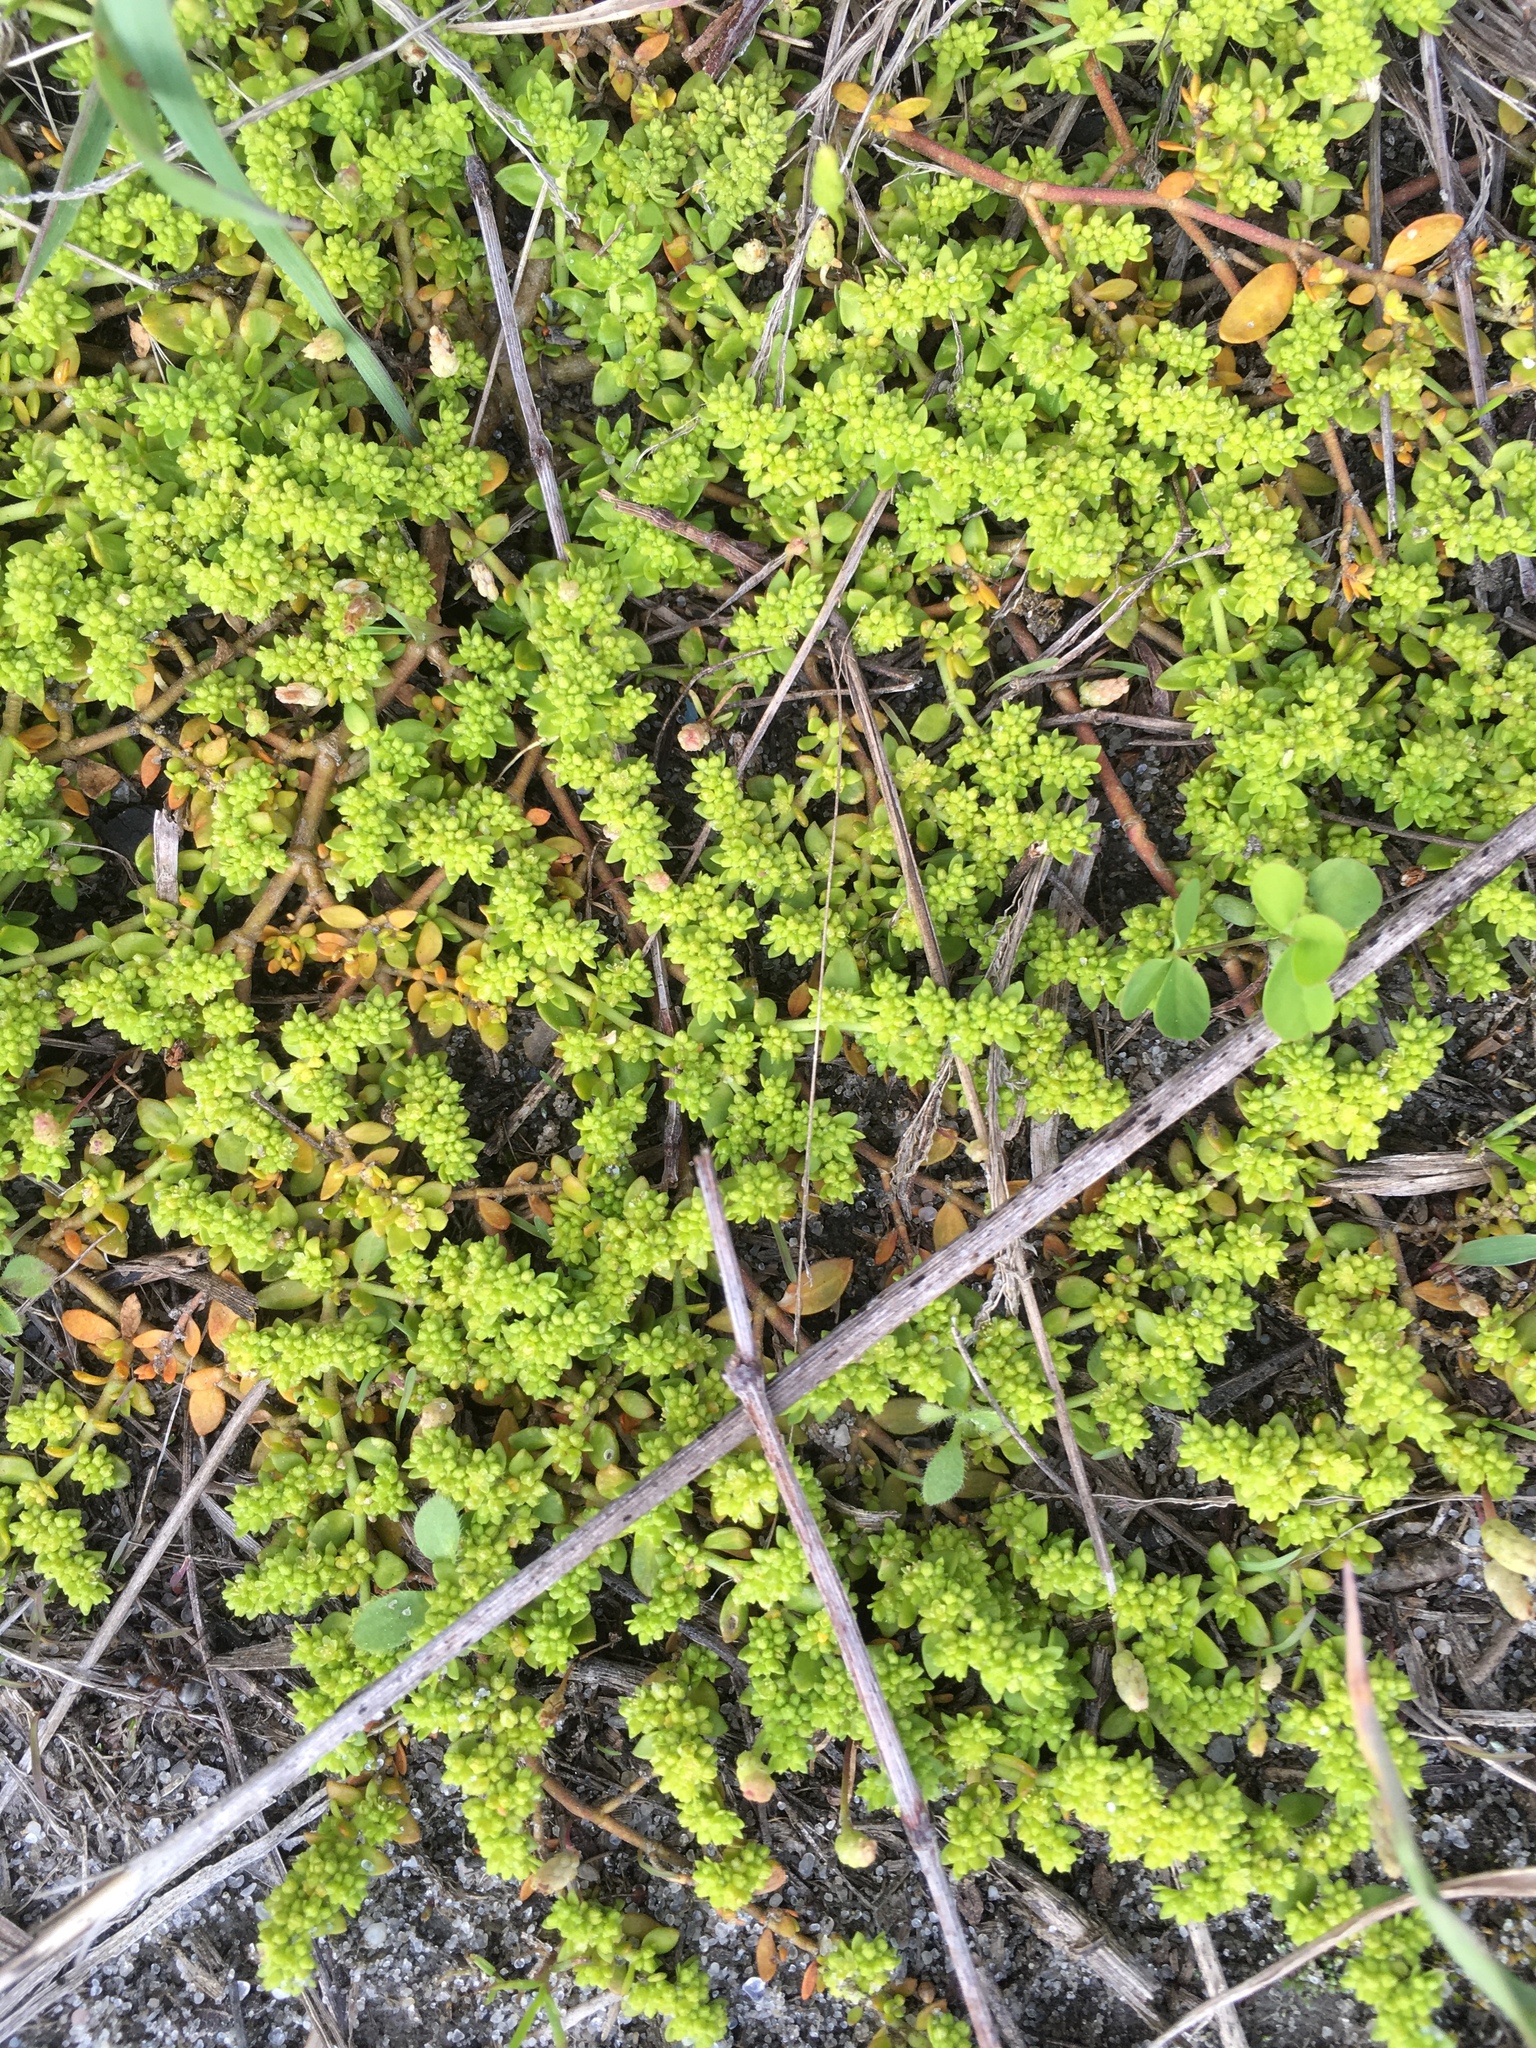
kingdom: Plantae
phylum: Tracheophyta
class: Magnoliopsida
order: Caryophyllales
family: Caryophyllaceae
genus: Herniaria
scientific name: Herniaria glabra
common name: Smooth rupturewort
